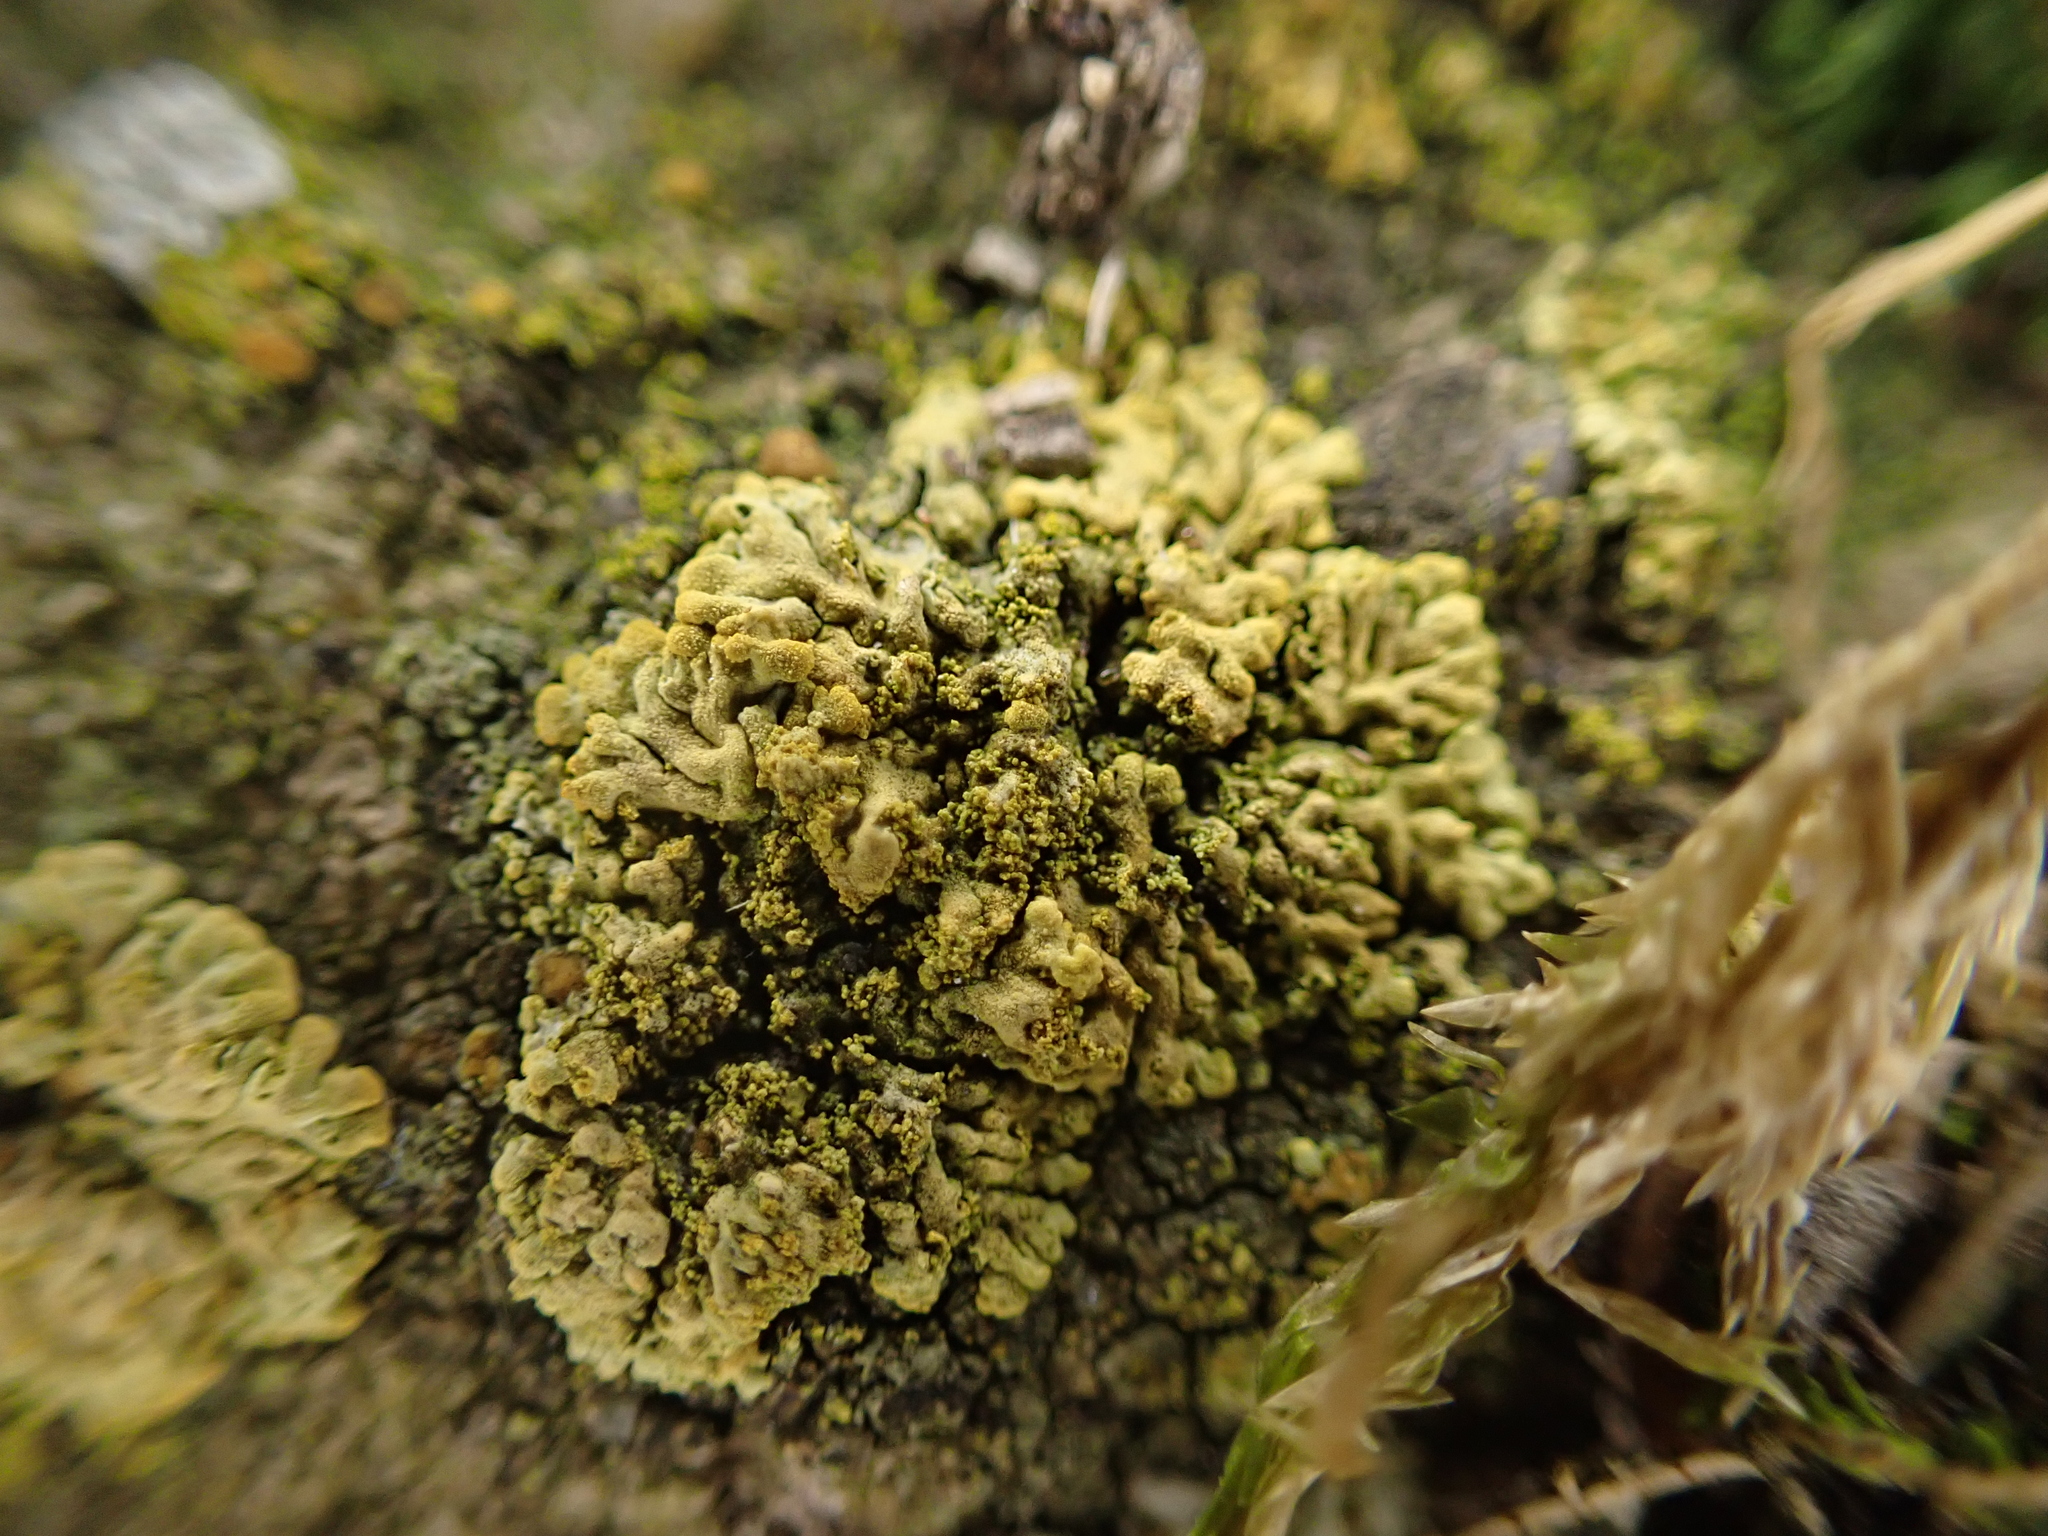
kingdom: Fungi
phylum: Ascomycota
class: Lecanoromycetes
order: Teloschistales
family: Teloschistaceae
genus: Calogaya
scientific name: Calogaya decipiens
